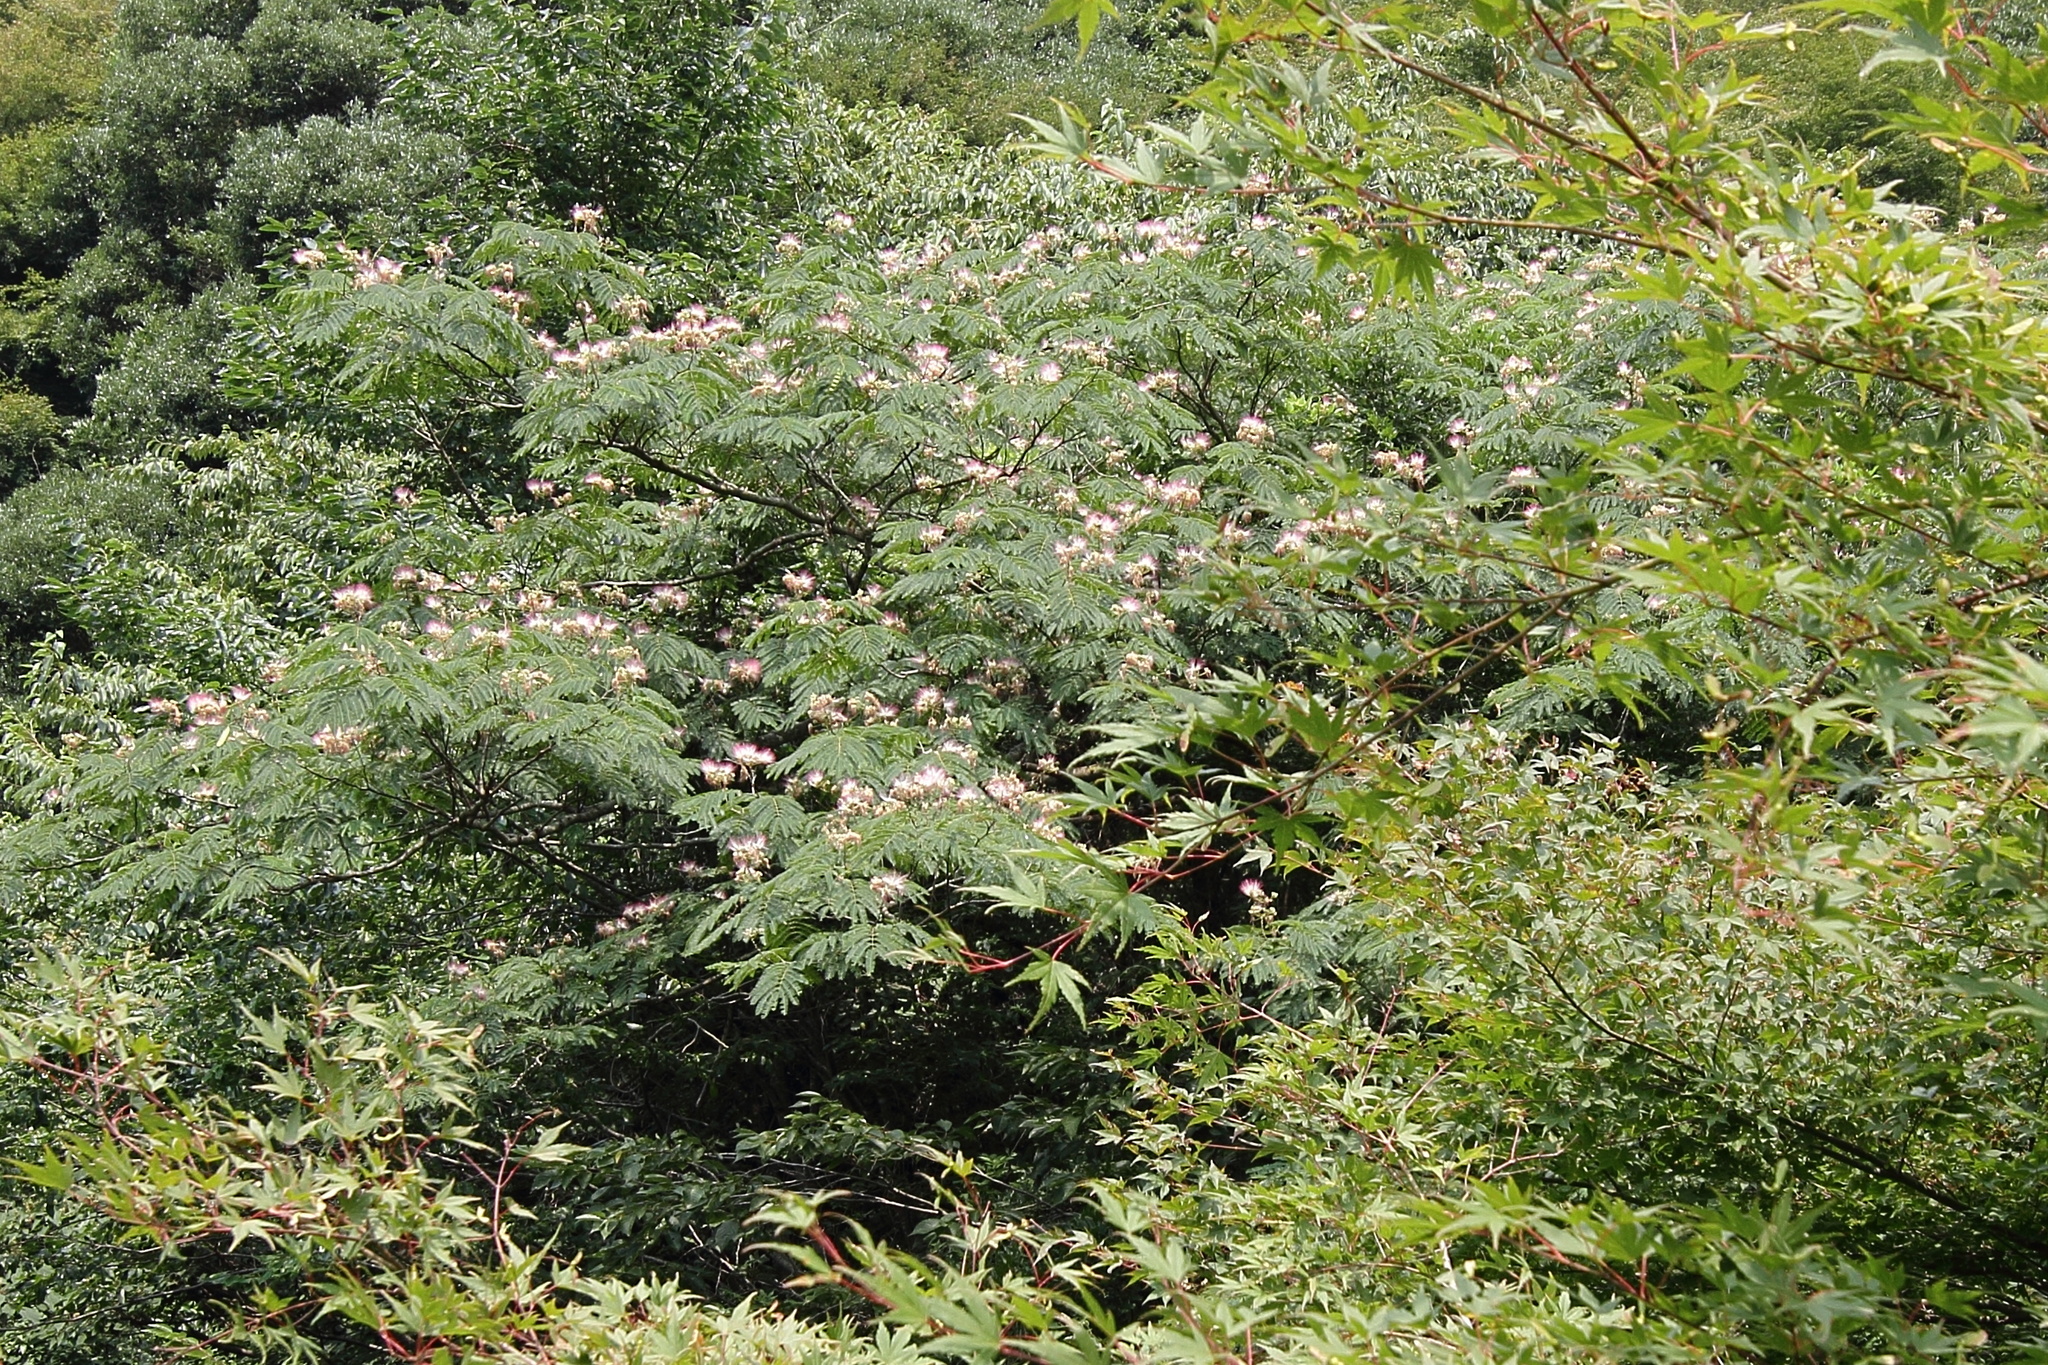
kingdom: Plantae
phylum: Tracheophyta
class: Magnoliopsida
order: Fabales
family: Fabaceae
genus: Albizia
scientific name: Albizia julibrissin
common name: Silktree
